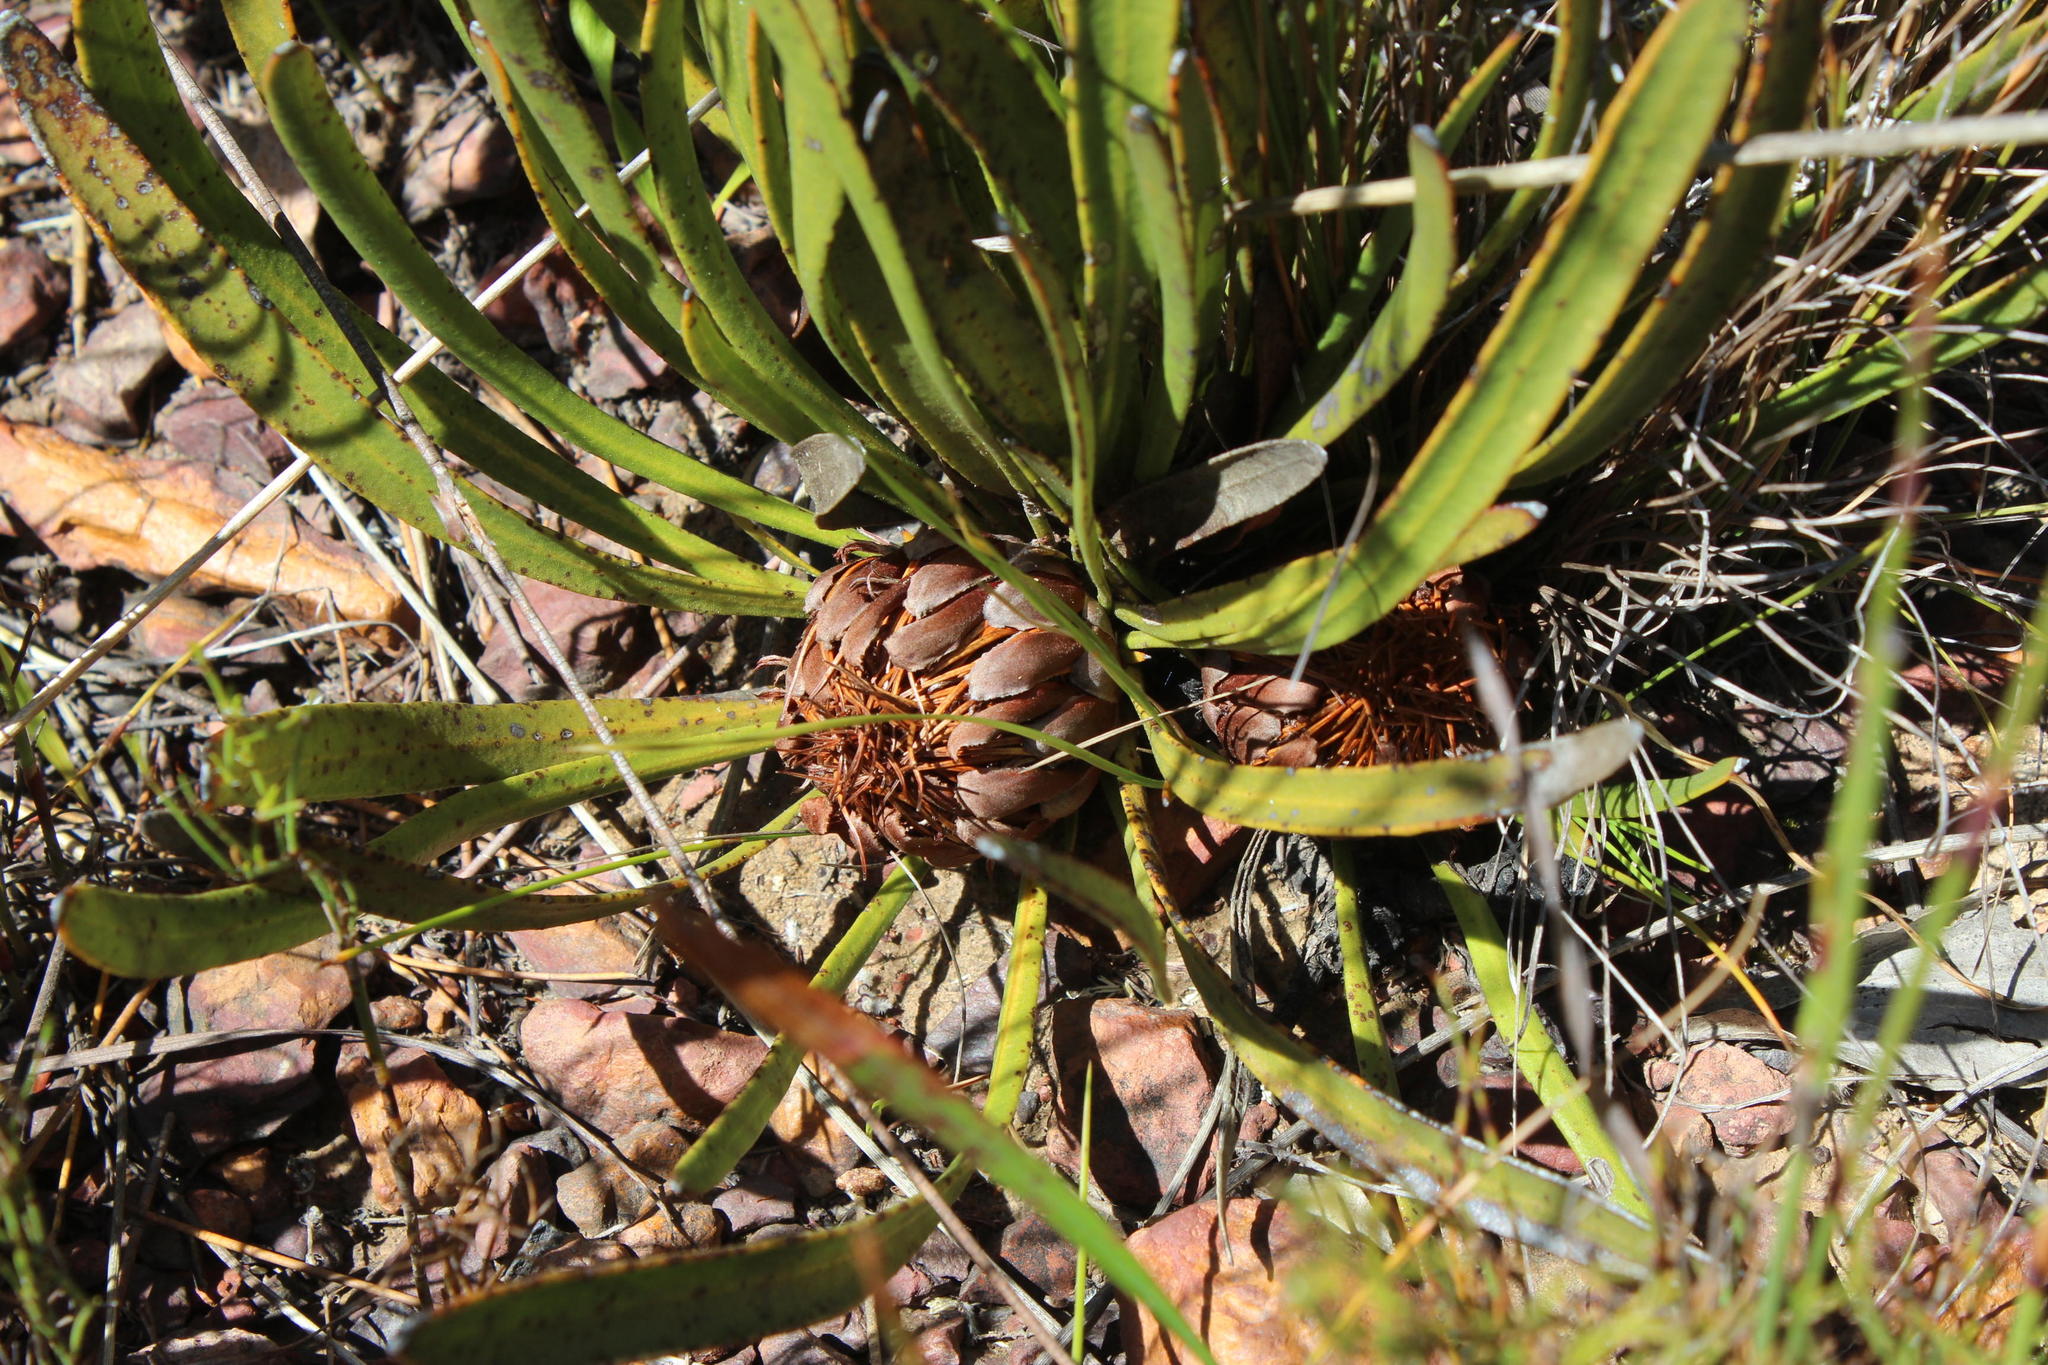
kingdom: Plantae
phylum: Tracheophyta
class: Magnoliopsida
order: Proteales
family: Proteaceae
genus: Protea
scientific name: Protea scabra
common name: Sandpaper-leaf sugarbush
